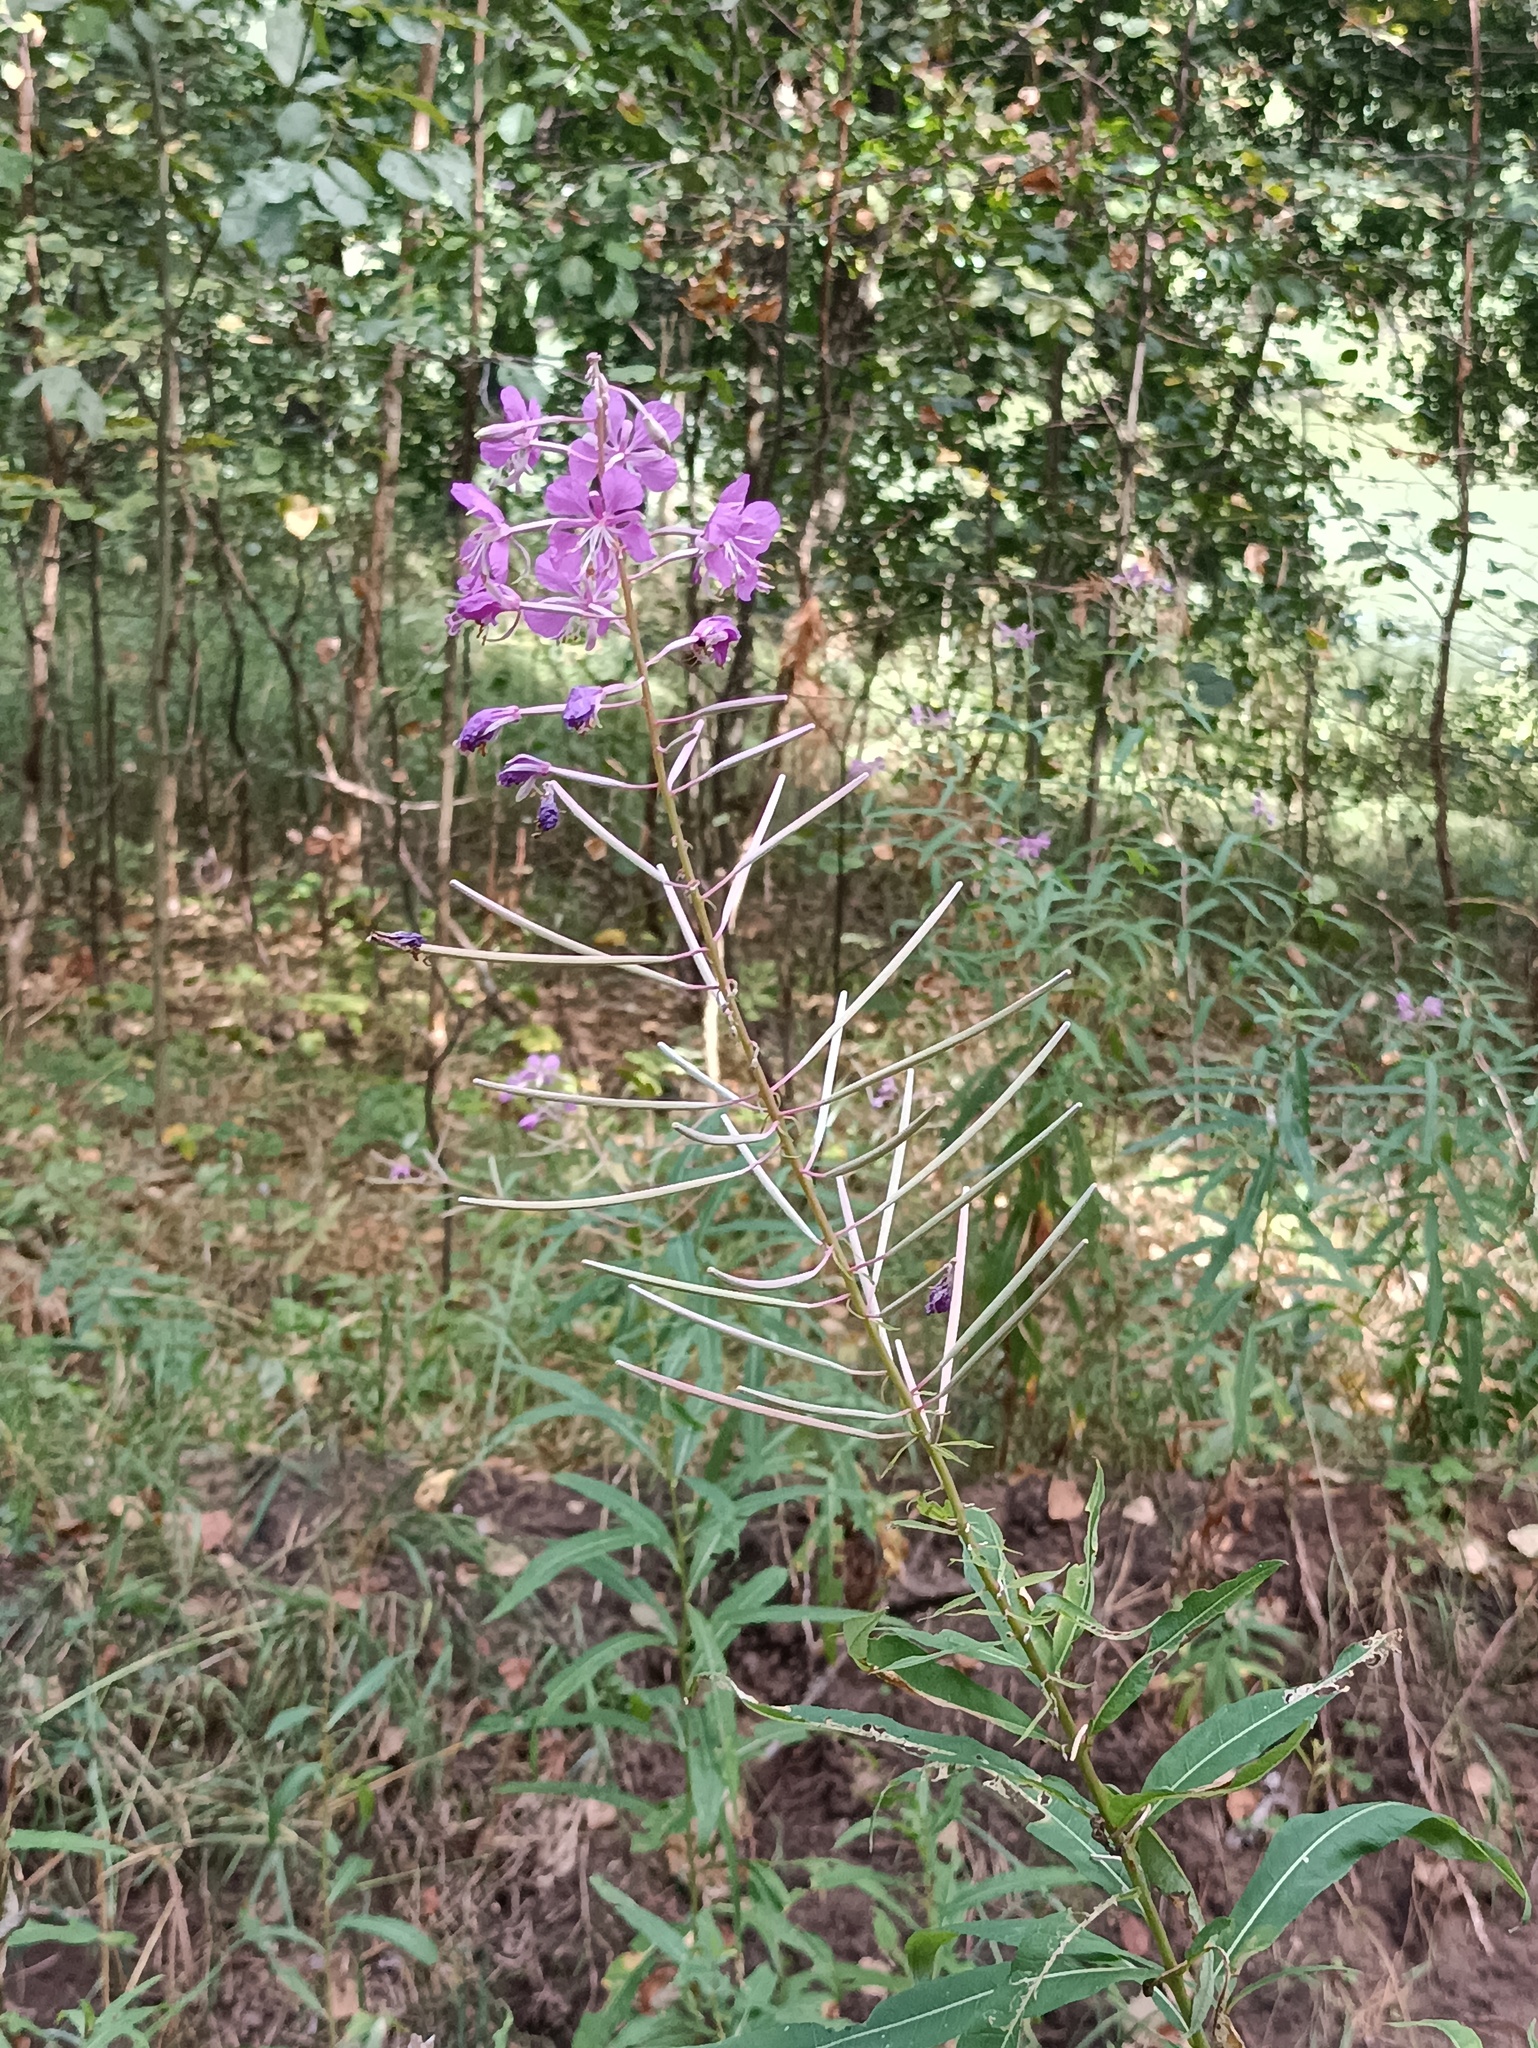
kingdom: Plantae
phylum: Tracheophyta
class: Magnoliopsida
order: Myrtales
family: Onagraceae
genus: Chamaenerion
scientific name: Chamaenerion angustifolium
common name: Fireweed
